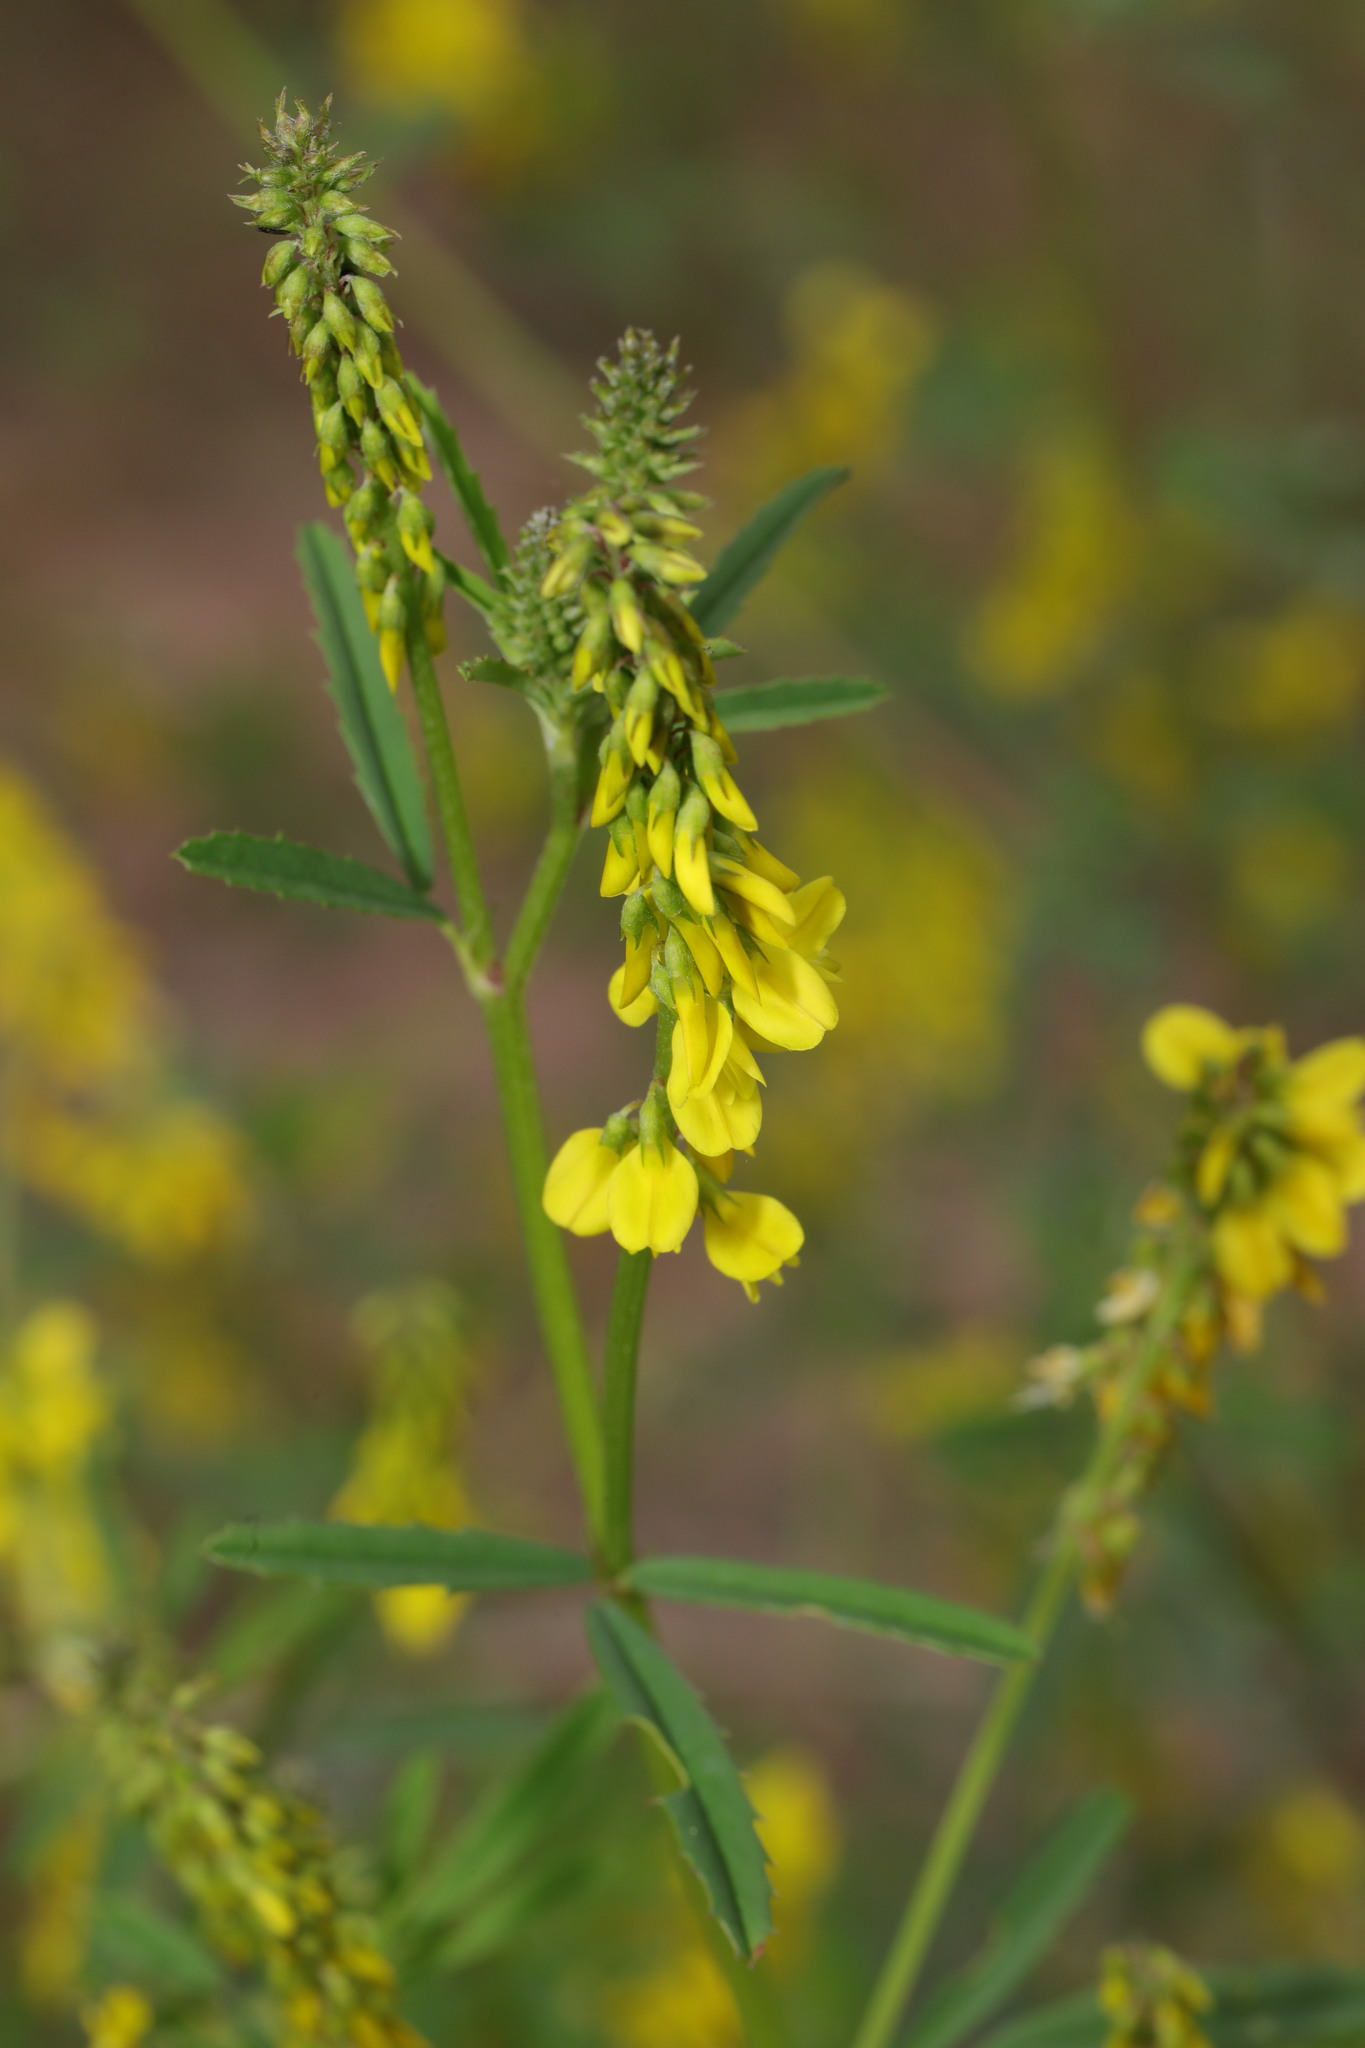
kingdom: Plantae
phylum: Tracheophyta
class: Magnoliopsida
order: Fabales
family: Fabaceae
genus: Melilotus
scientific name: Melilotus officinalis
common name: Sweetclover
